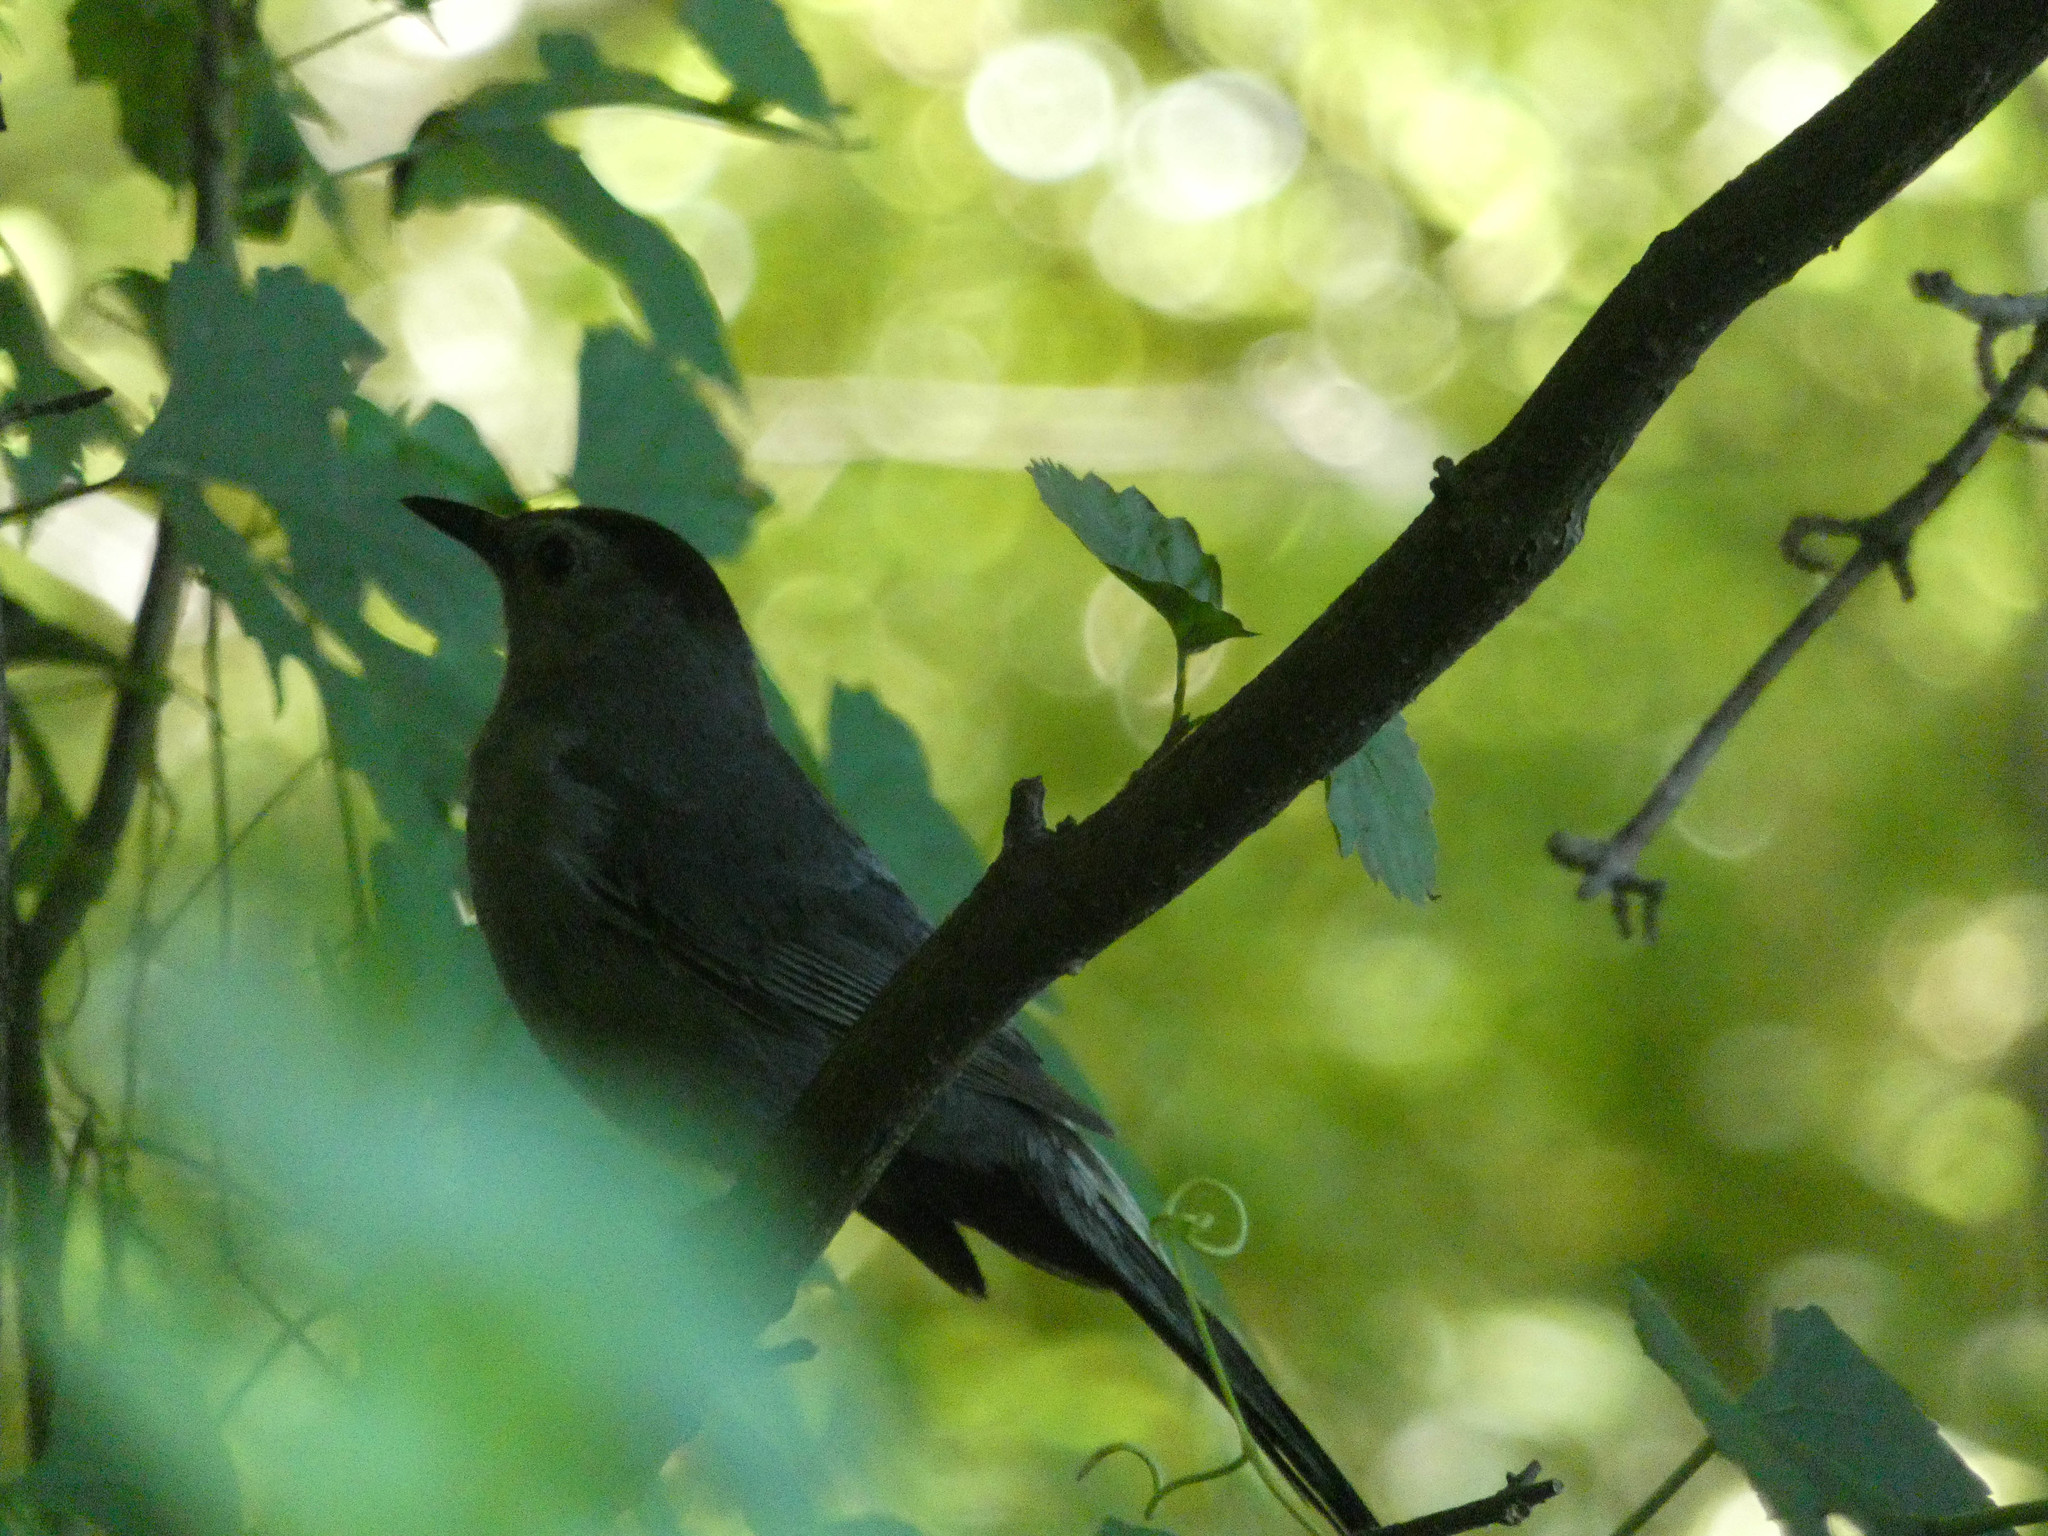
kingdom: Animalia
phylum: Chordata
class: Aves
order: Passeriformes
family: Mimidae
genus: Dumetella
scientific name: Dumetella carolinensis
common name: Gray catbird
